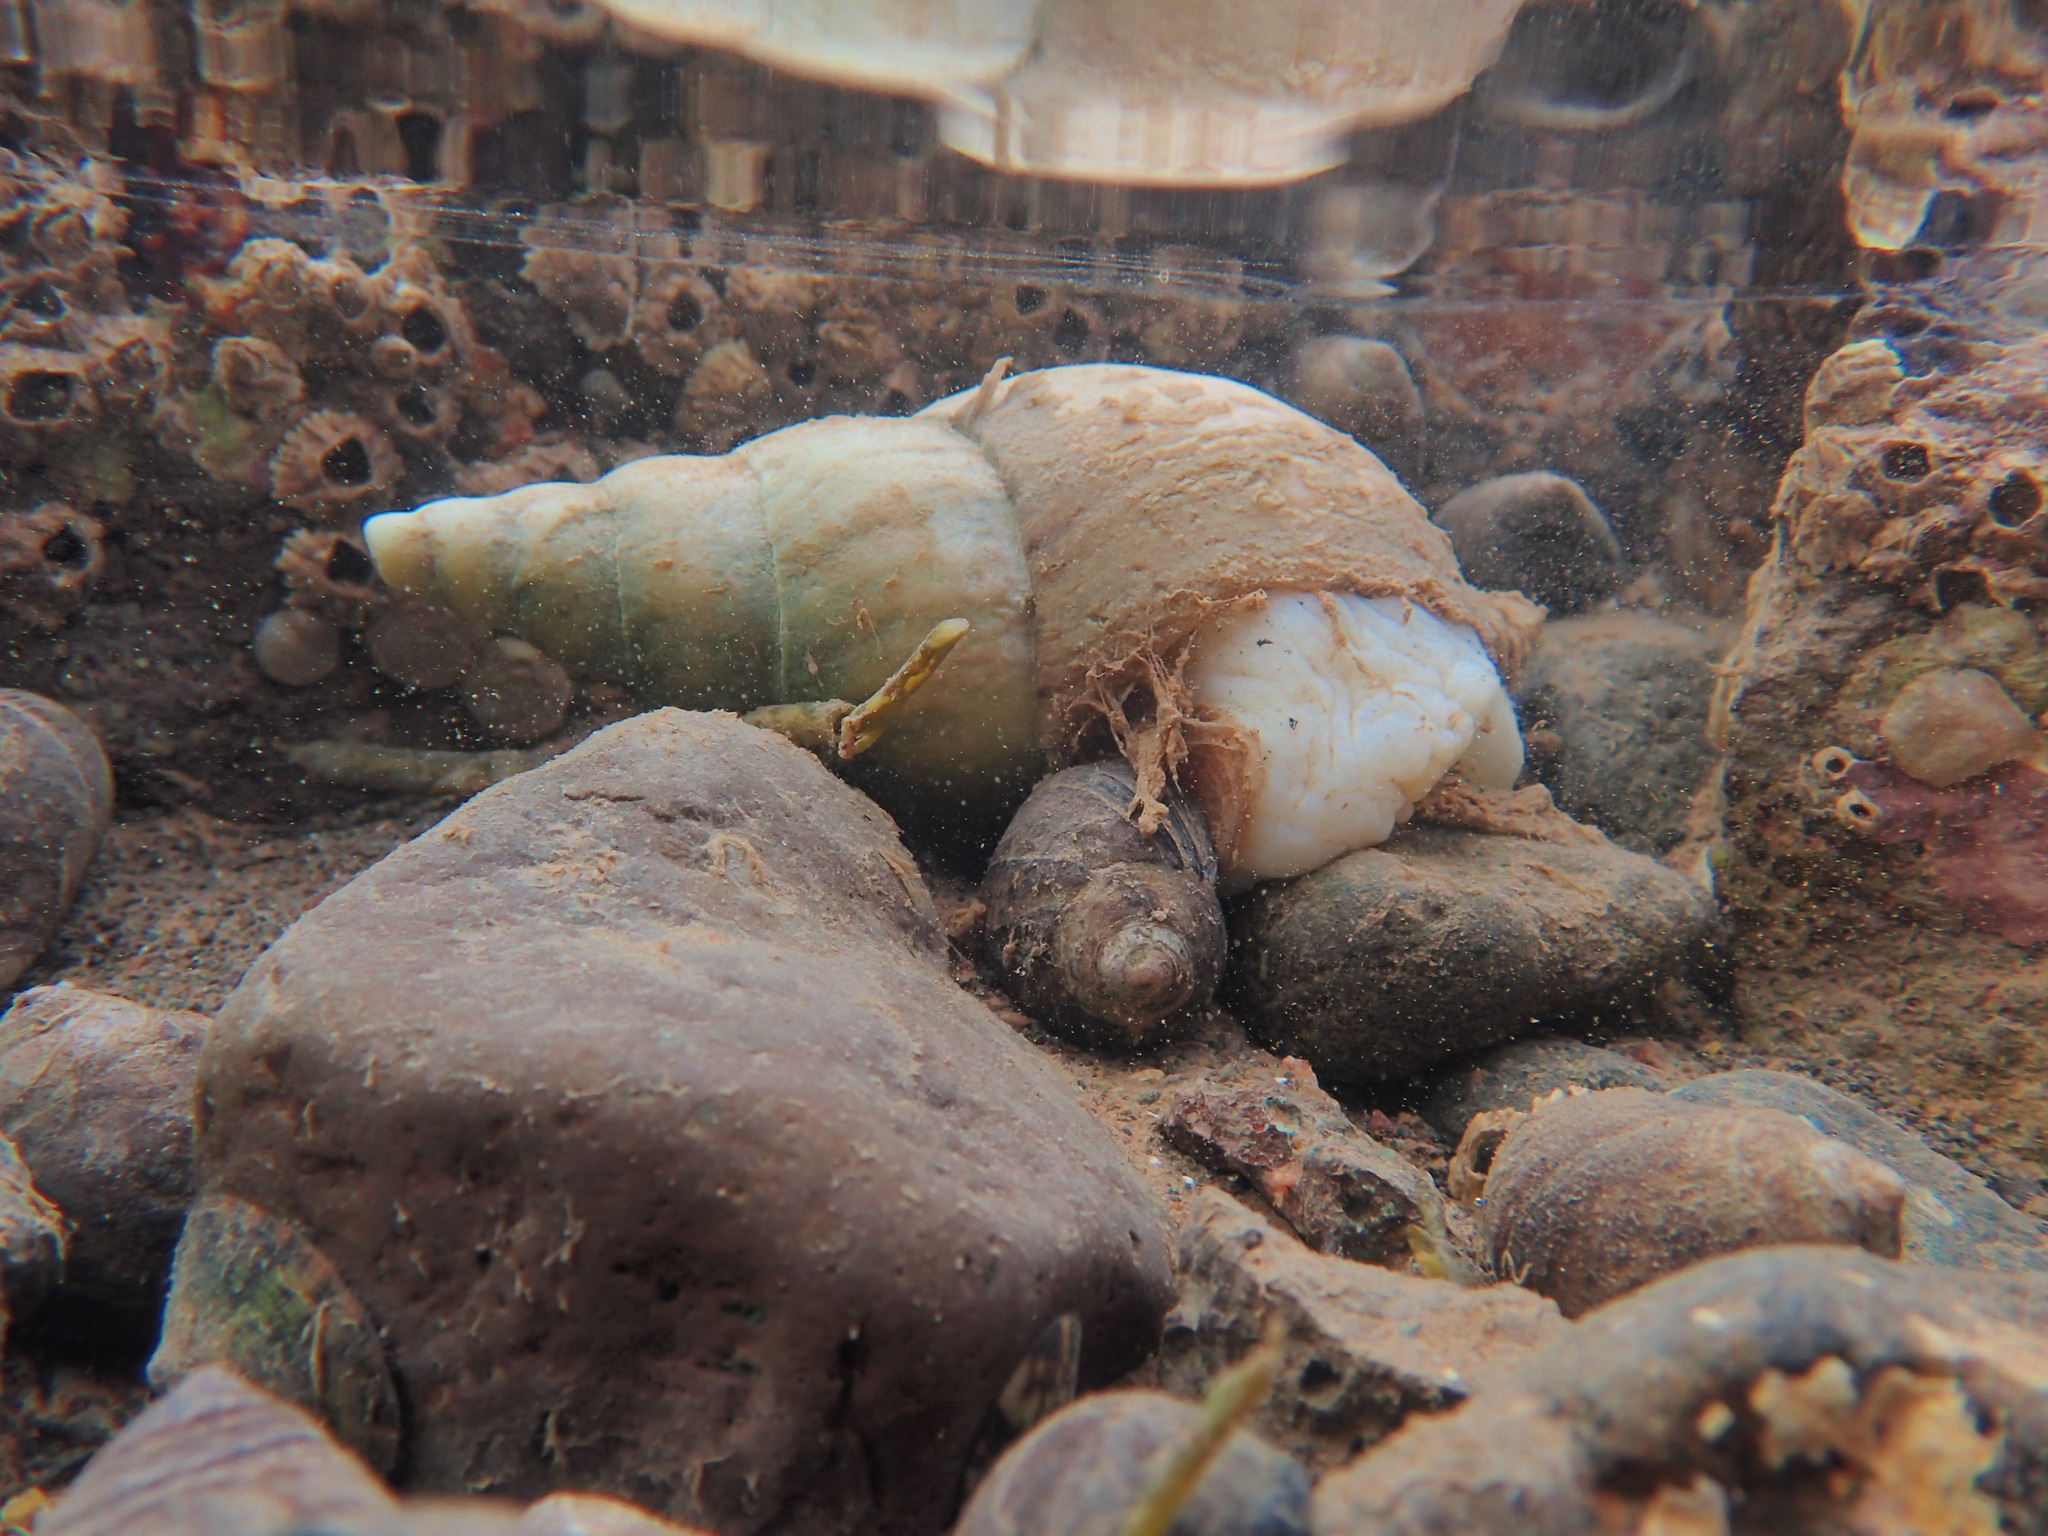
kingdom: Animalia
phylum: Mollusca
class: Gastropoda
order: Neogastropoda
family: Colidae
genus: Colus
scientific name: Colus stimpsoni
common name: Stimpson's colus
